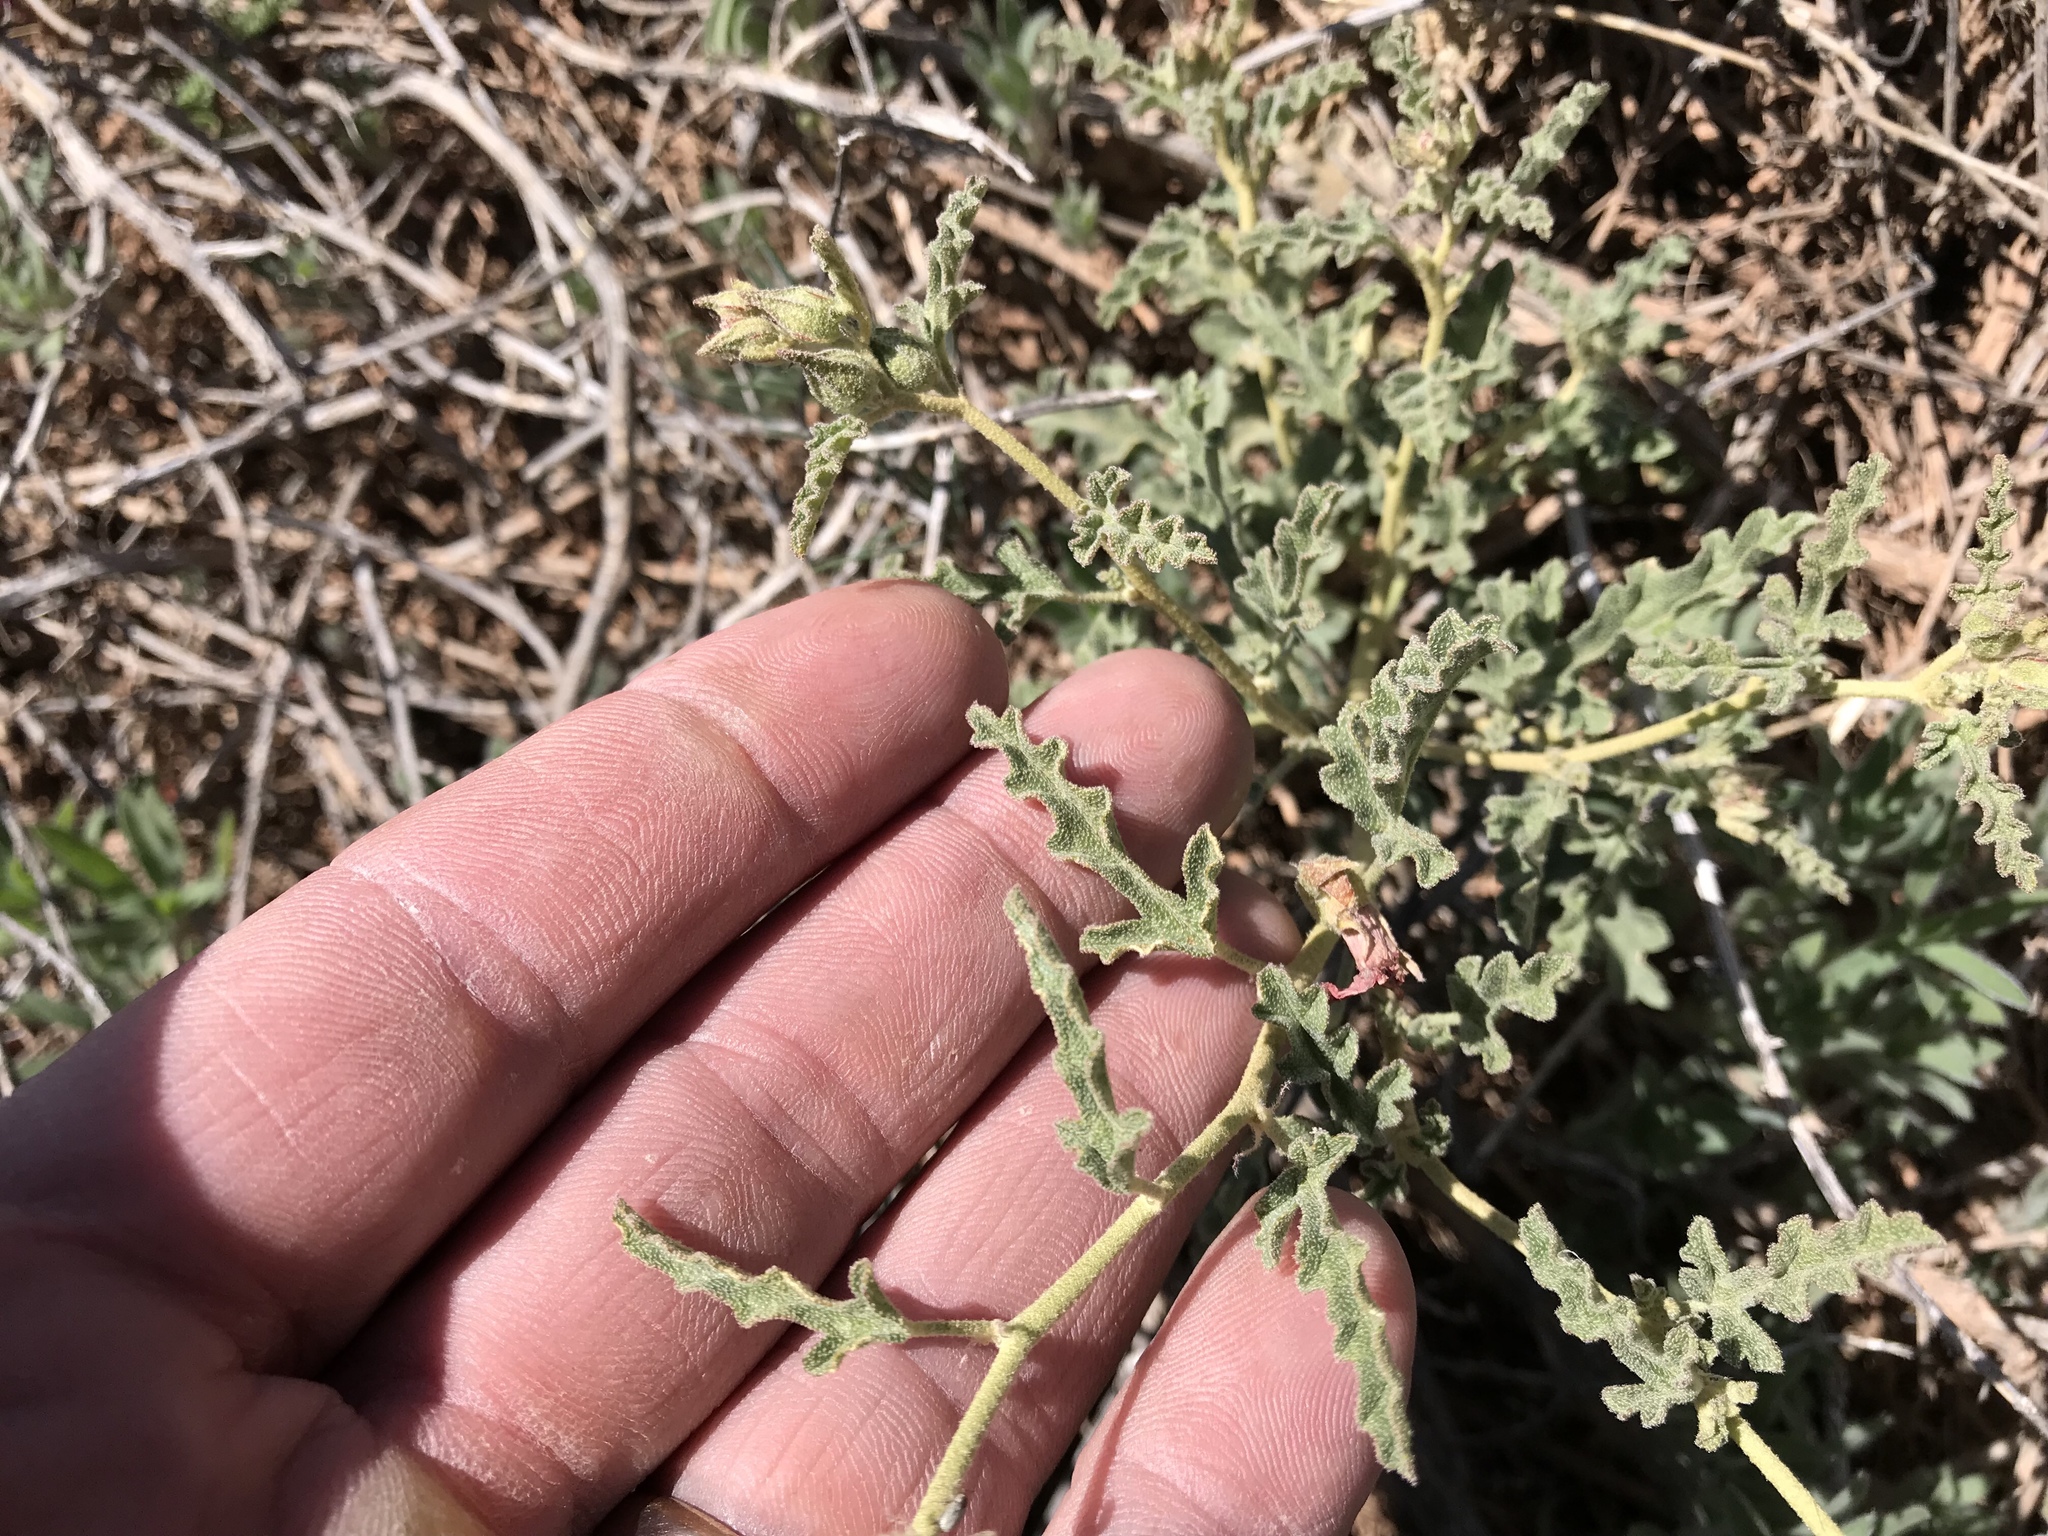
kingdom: Plantae
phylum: Tracheophyta
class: Magnoliopsida
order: Malvales
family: Malvaceae
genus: Sphaeralcea
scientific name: Sphaeralcea hastulata
